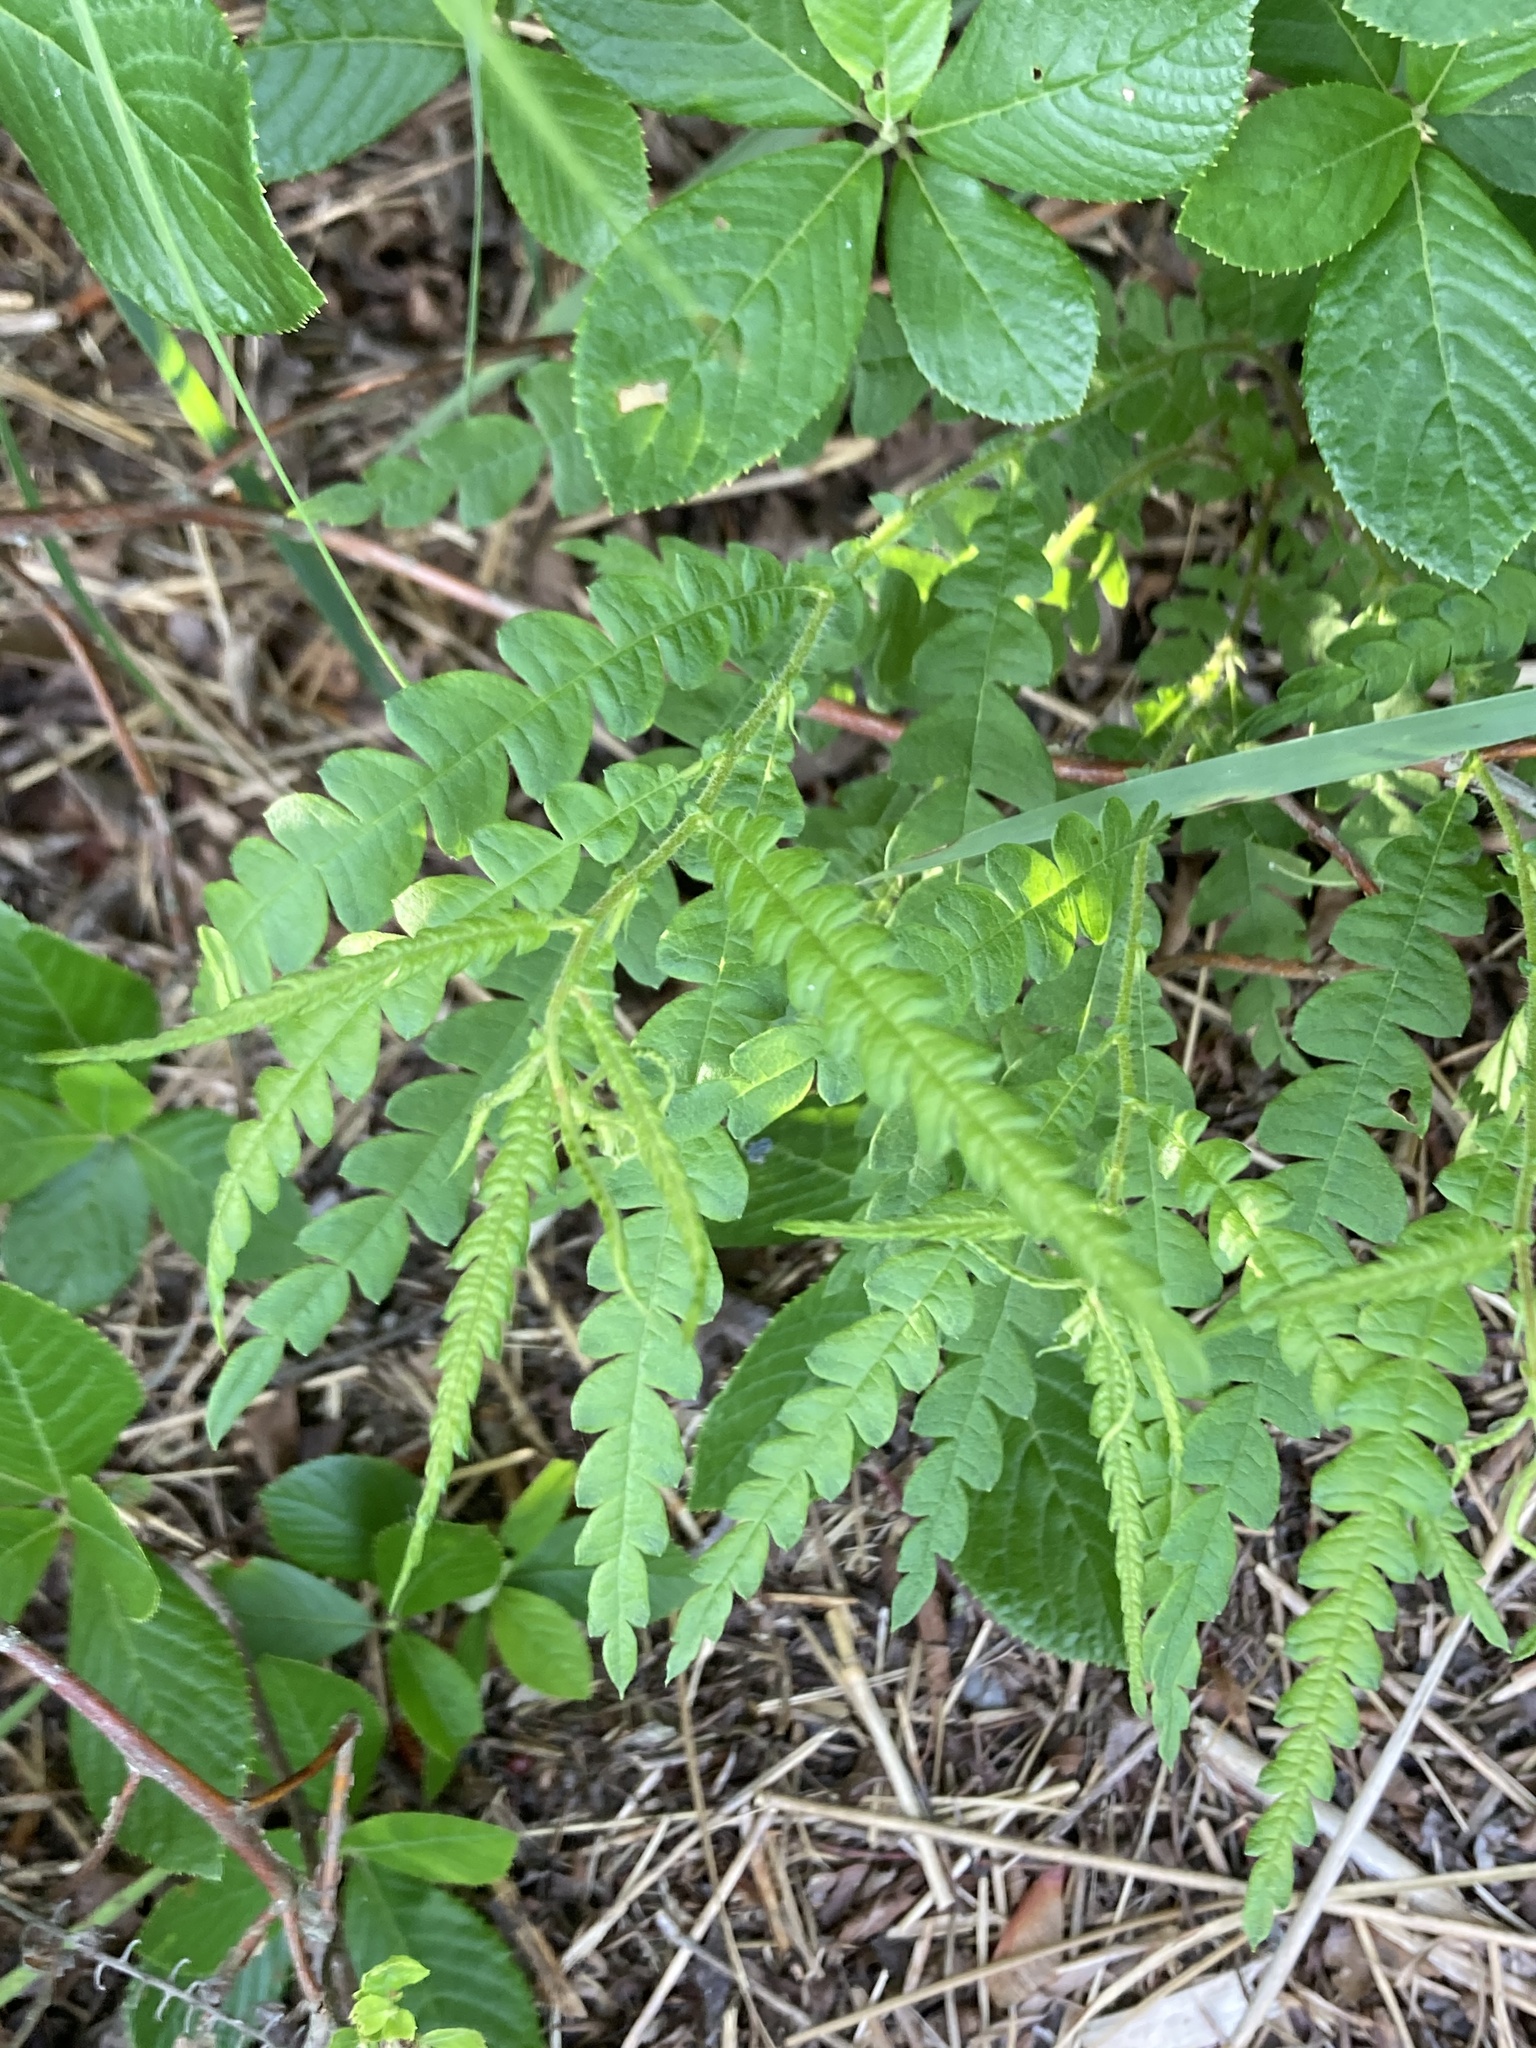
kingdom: Plantae
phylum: Tracheophyta
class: Magnoliopsida
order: Fagales
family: Myricaceae
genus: Comptonia
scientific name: Comptonia peregrina
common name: Sweet-fern
